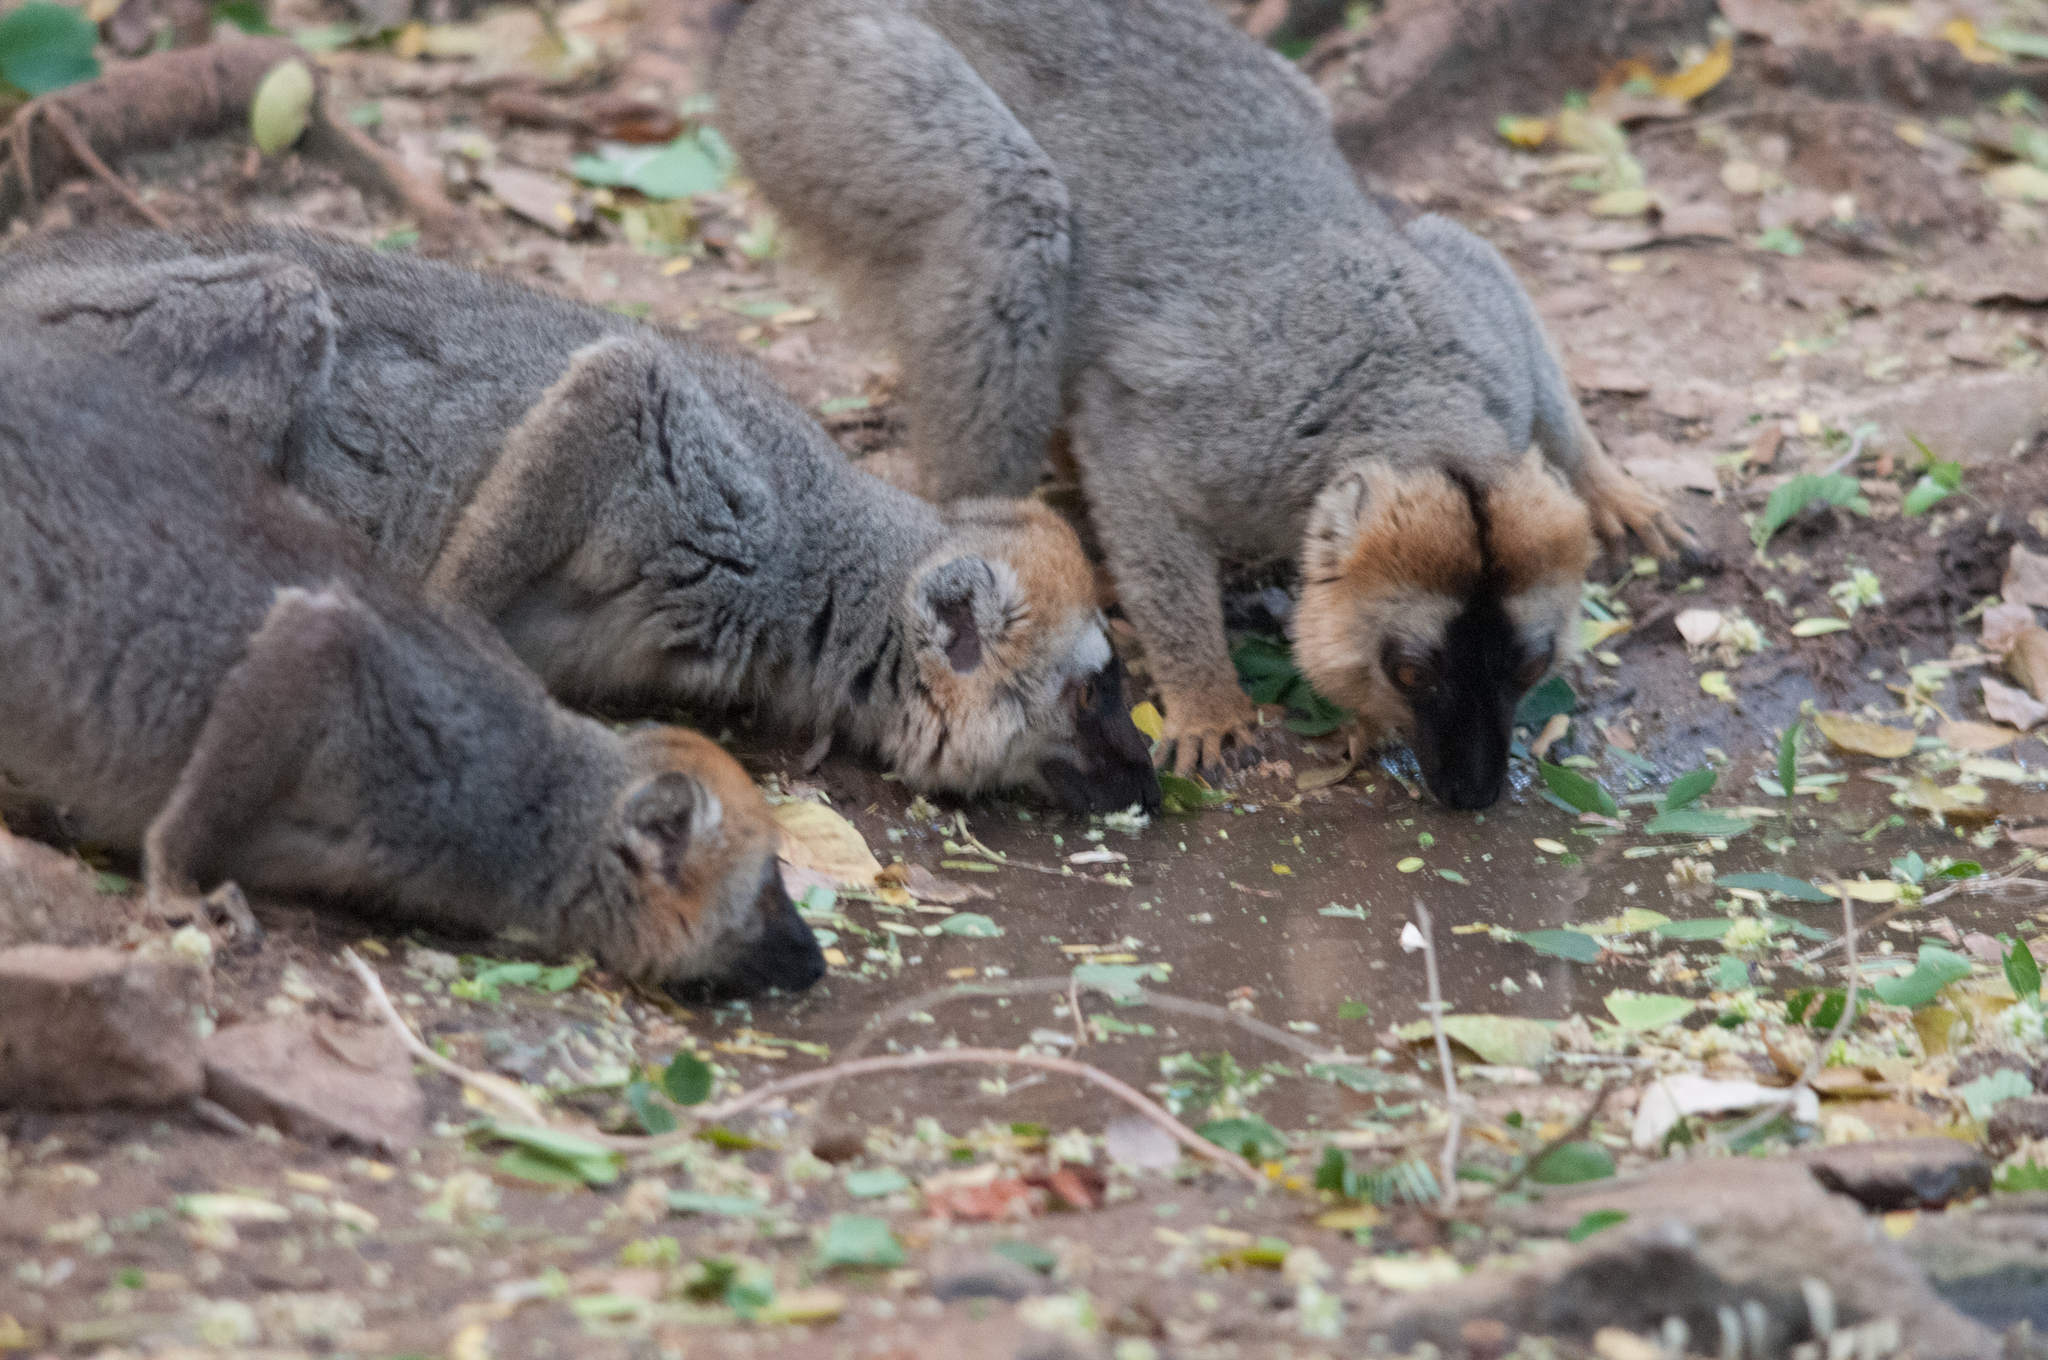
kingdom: Animalia
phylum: Chordata
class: Mammalia
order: Primates
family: Lemuridae
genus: Eulemur
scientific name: Eulemur rufifrons
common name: Red-fronted brown lemur
